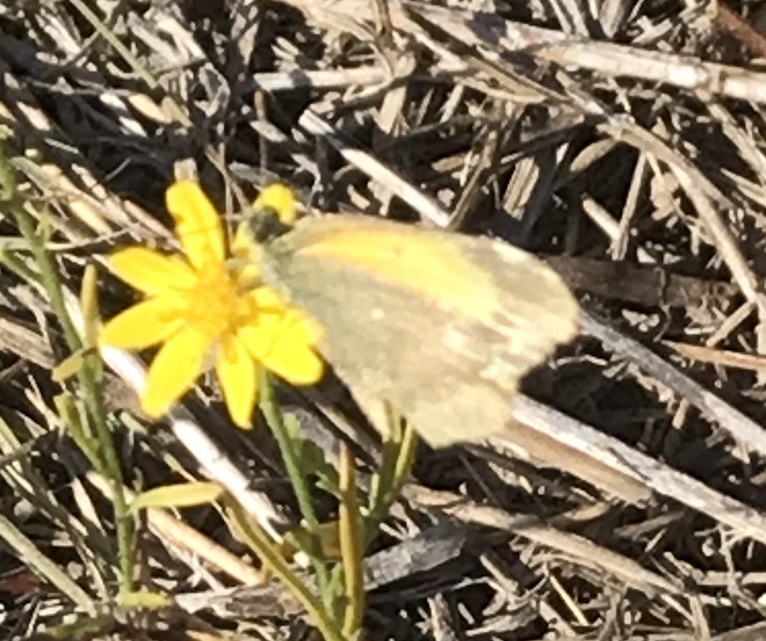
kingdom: Animalia
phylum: Arthropoda
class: Insecta
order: Lepidoptera
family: Pieridae
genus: Nathalis
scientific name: Nathalis iole
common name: Dainty sulphur
